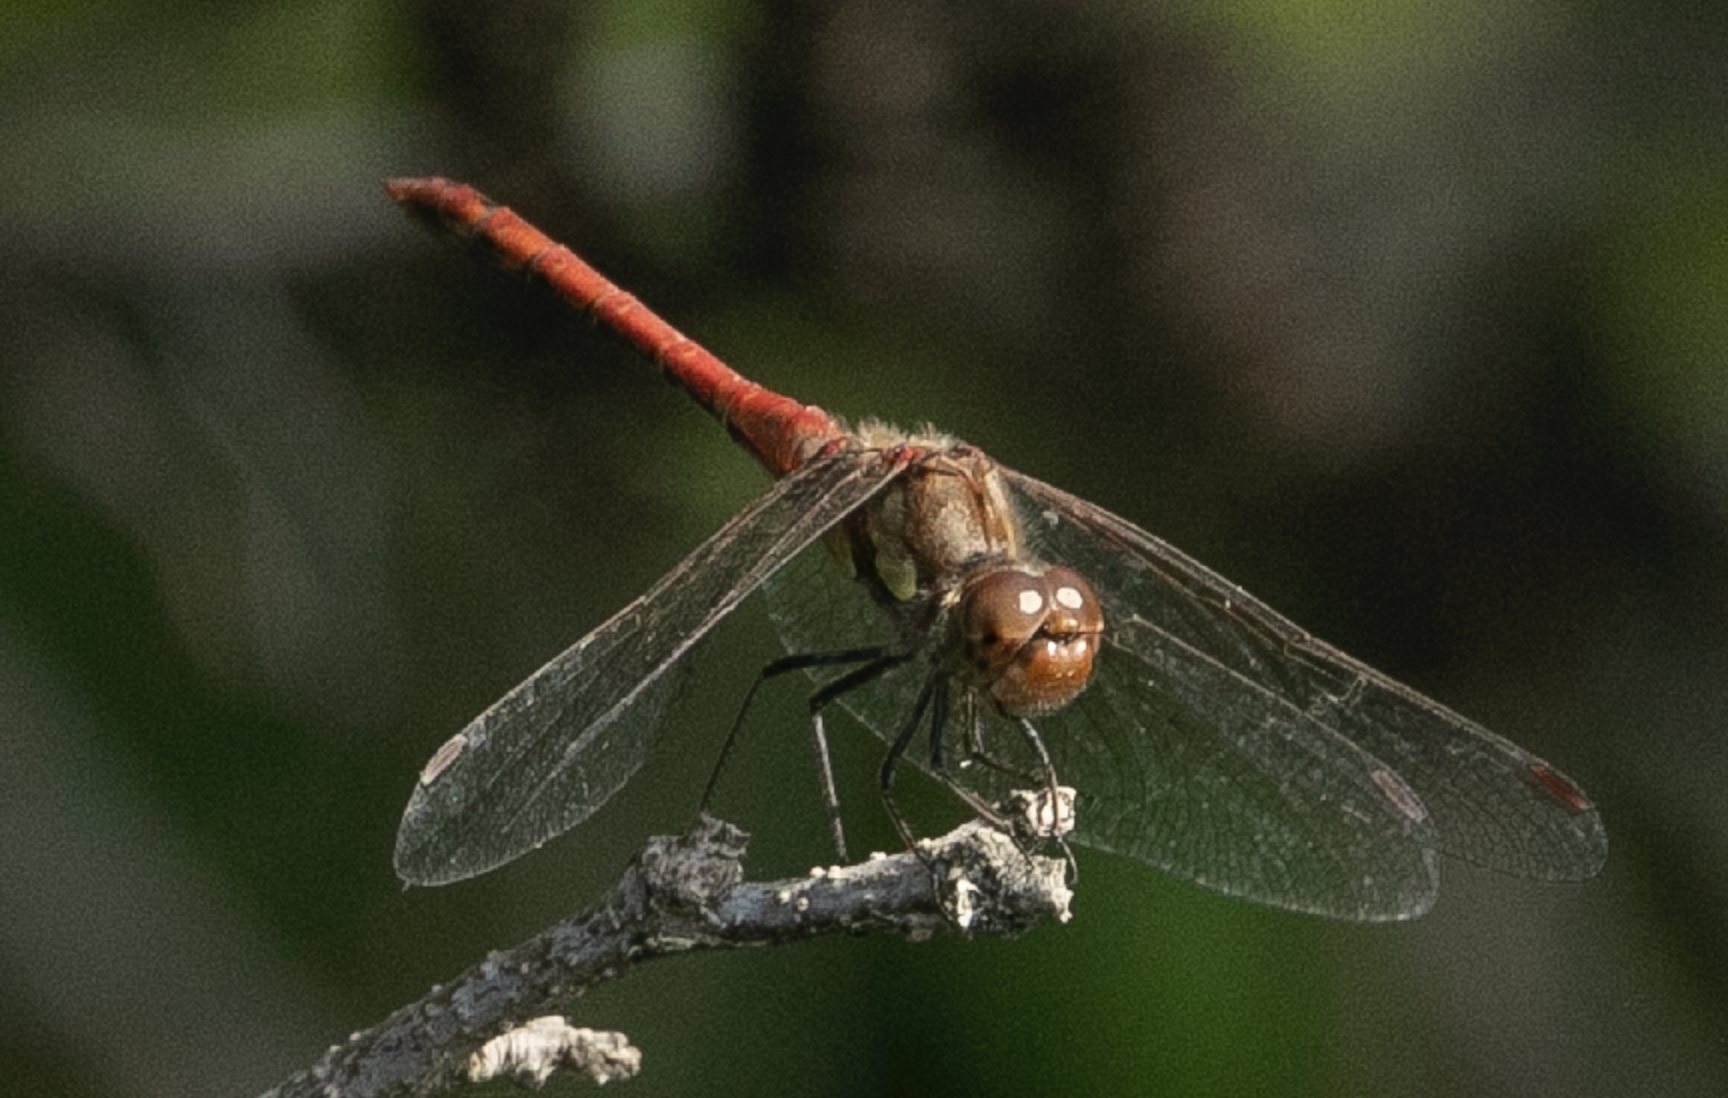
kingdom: Animalia
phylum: Arthropoda
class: Insecta
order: Odonata
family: Libellulidae
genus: Sympetrum
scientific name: Sympetrum striolatum
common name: Common darter
